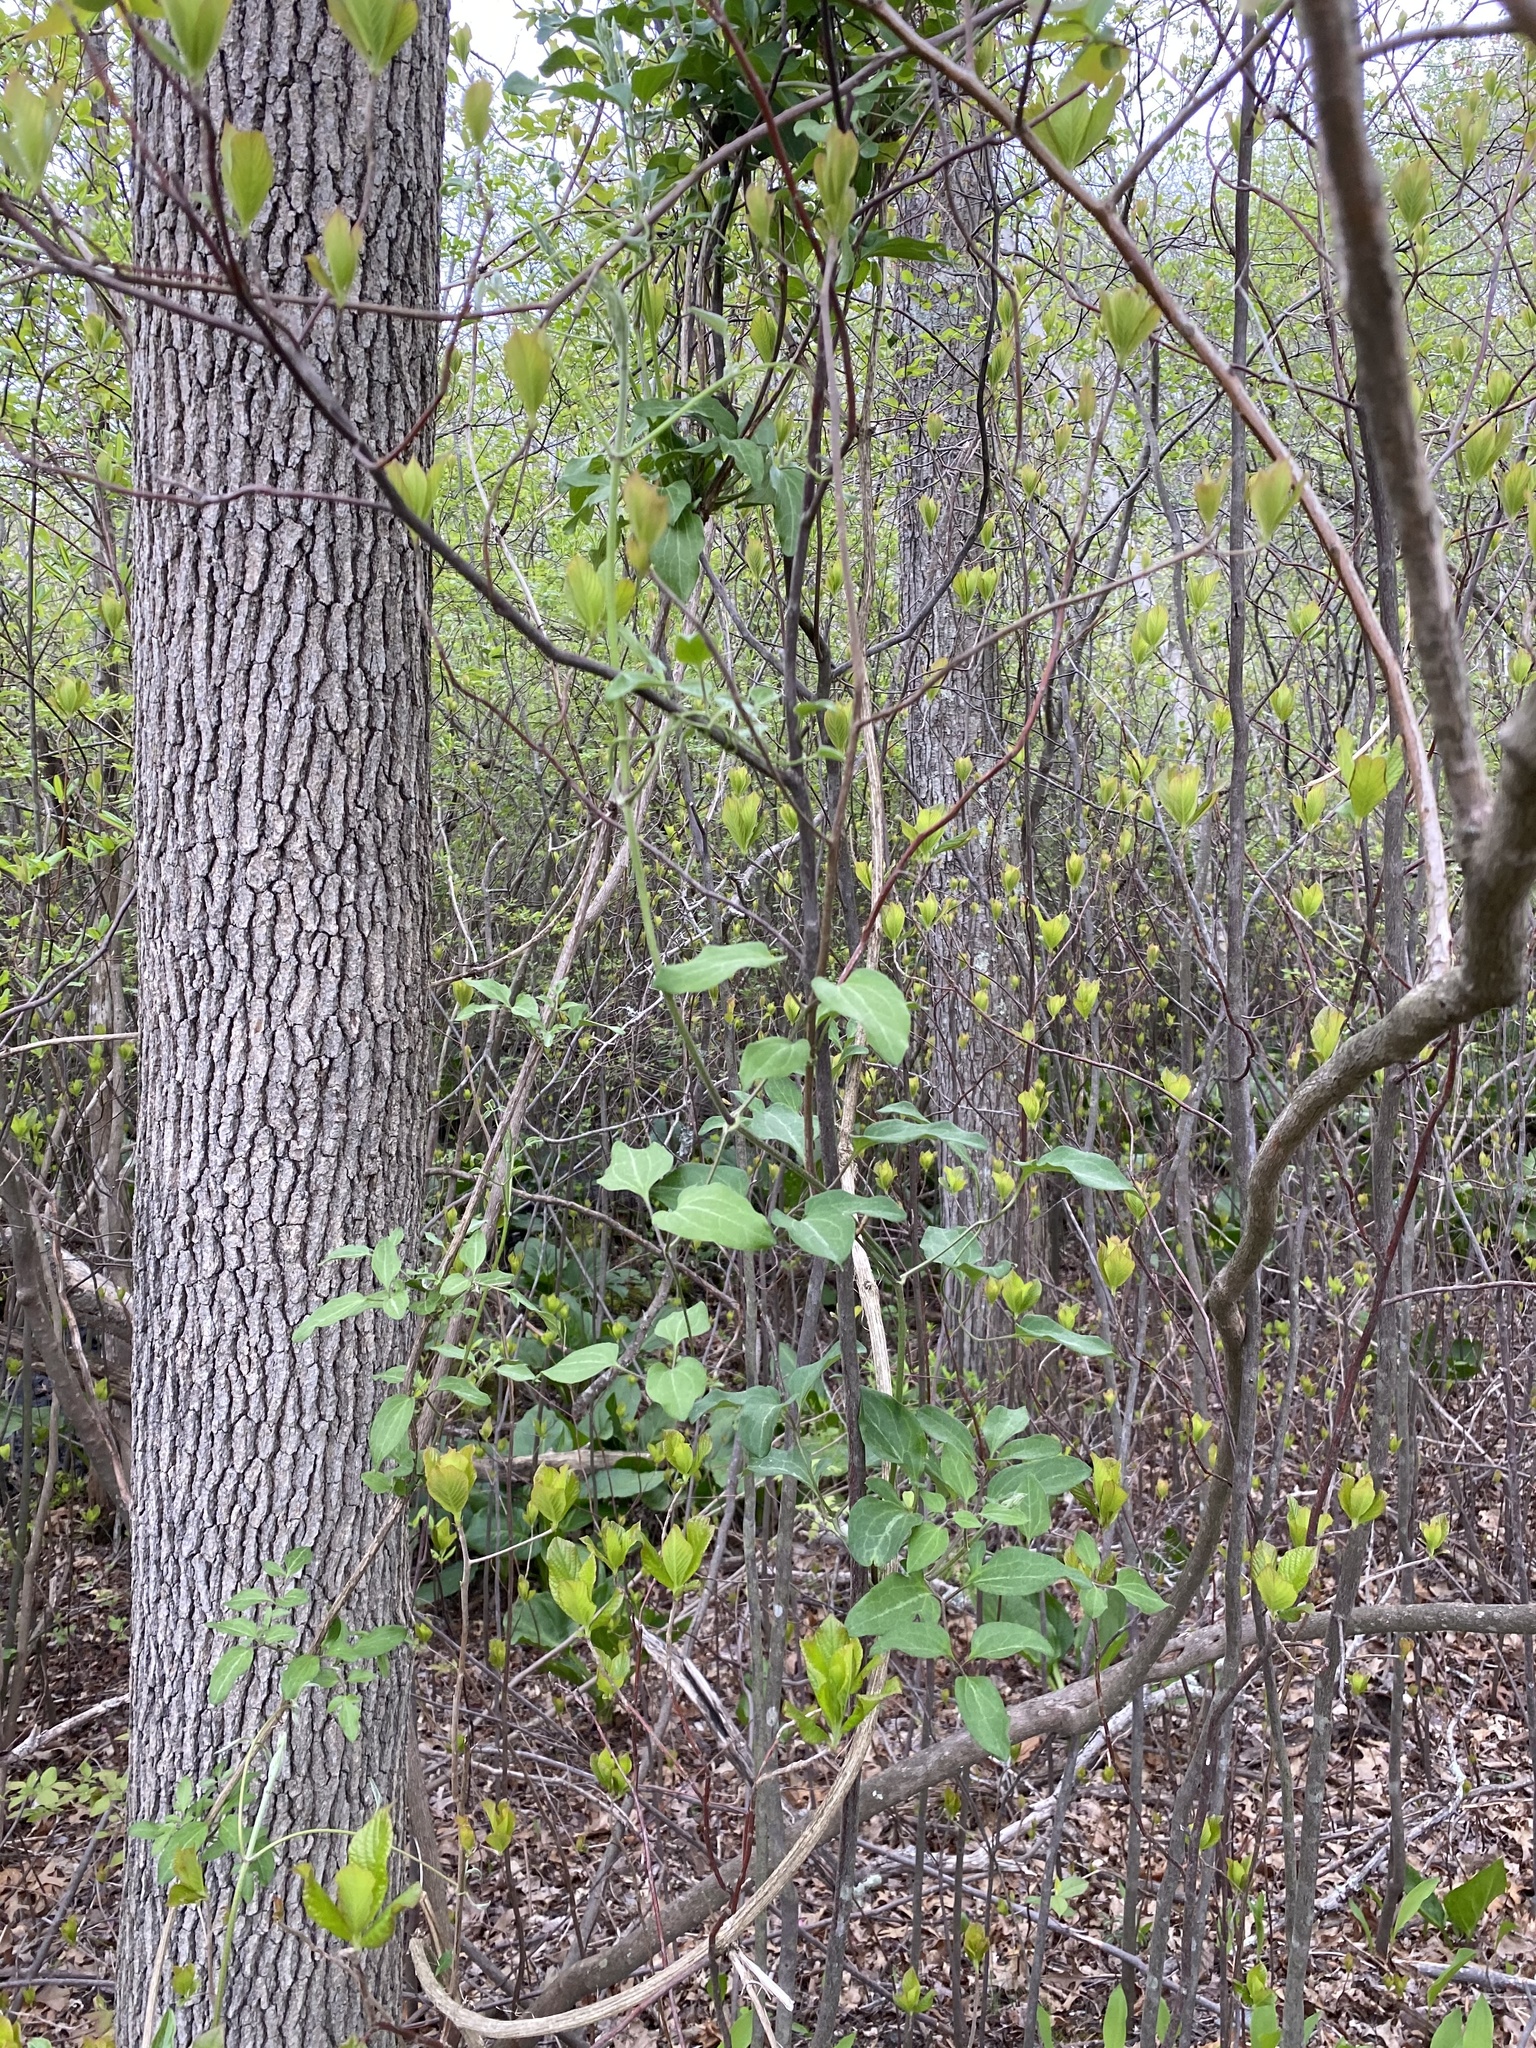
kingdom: Plantae
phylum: Tracheophyta
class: Magnoliopsida
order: Ranunculales
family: Ranunculaceae
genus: Clematis
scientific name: Clematis terniflora
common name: Sweet autumn clematis
